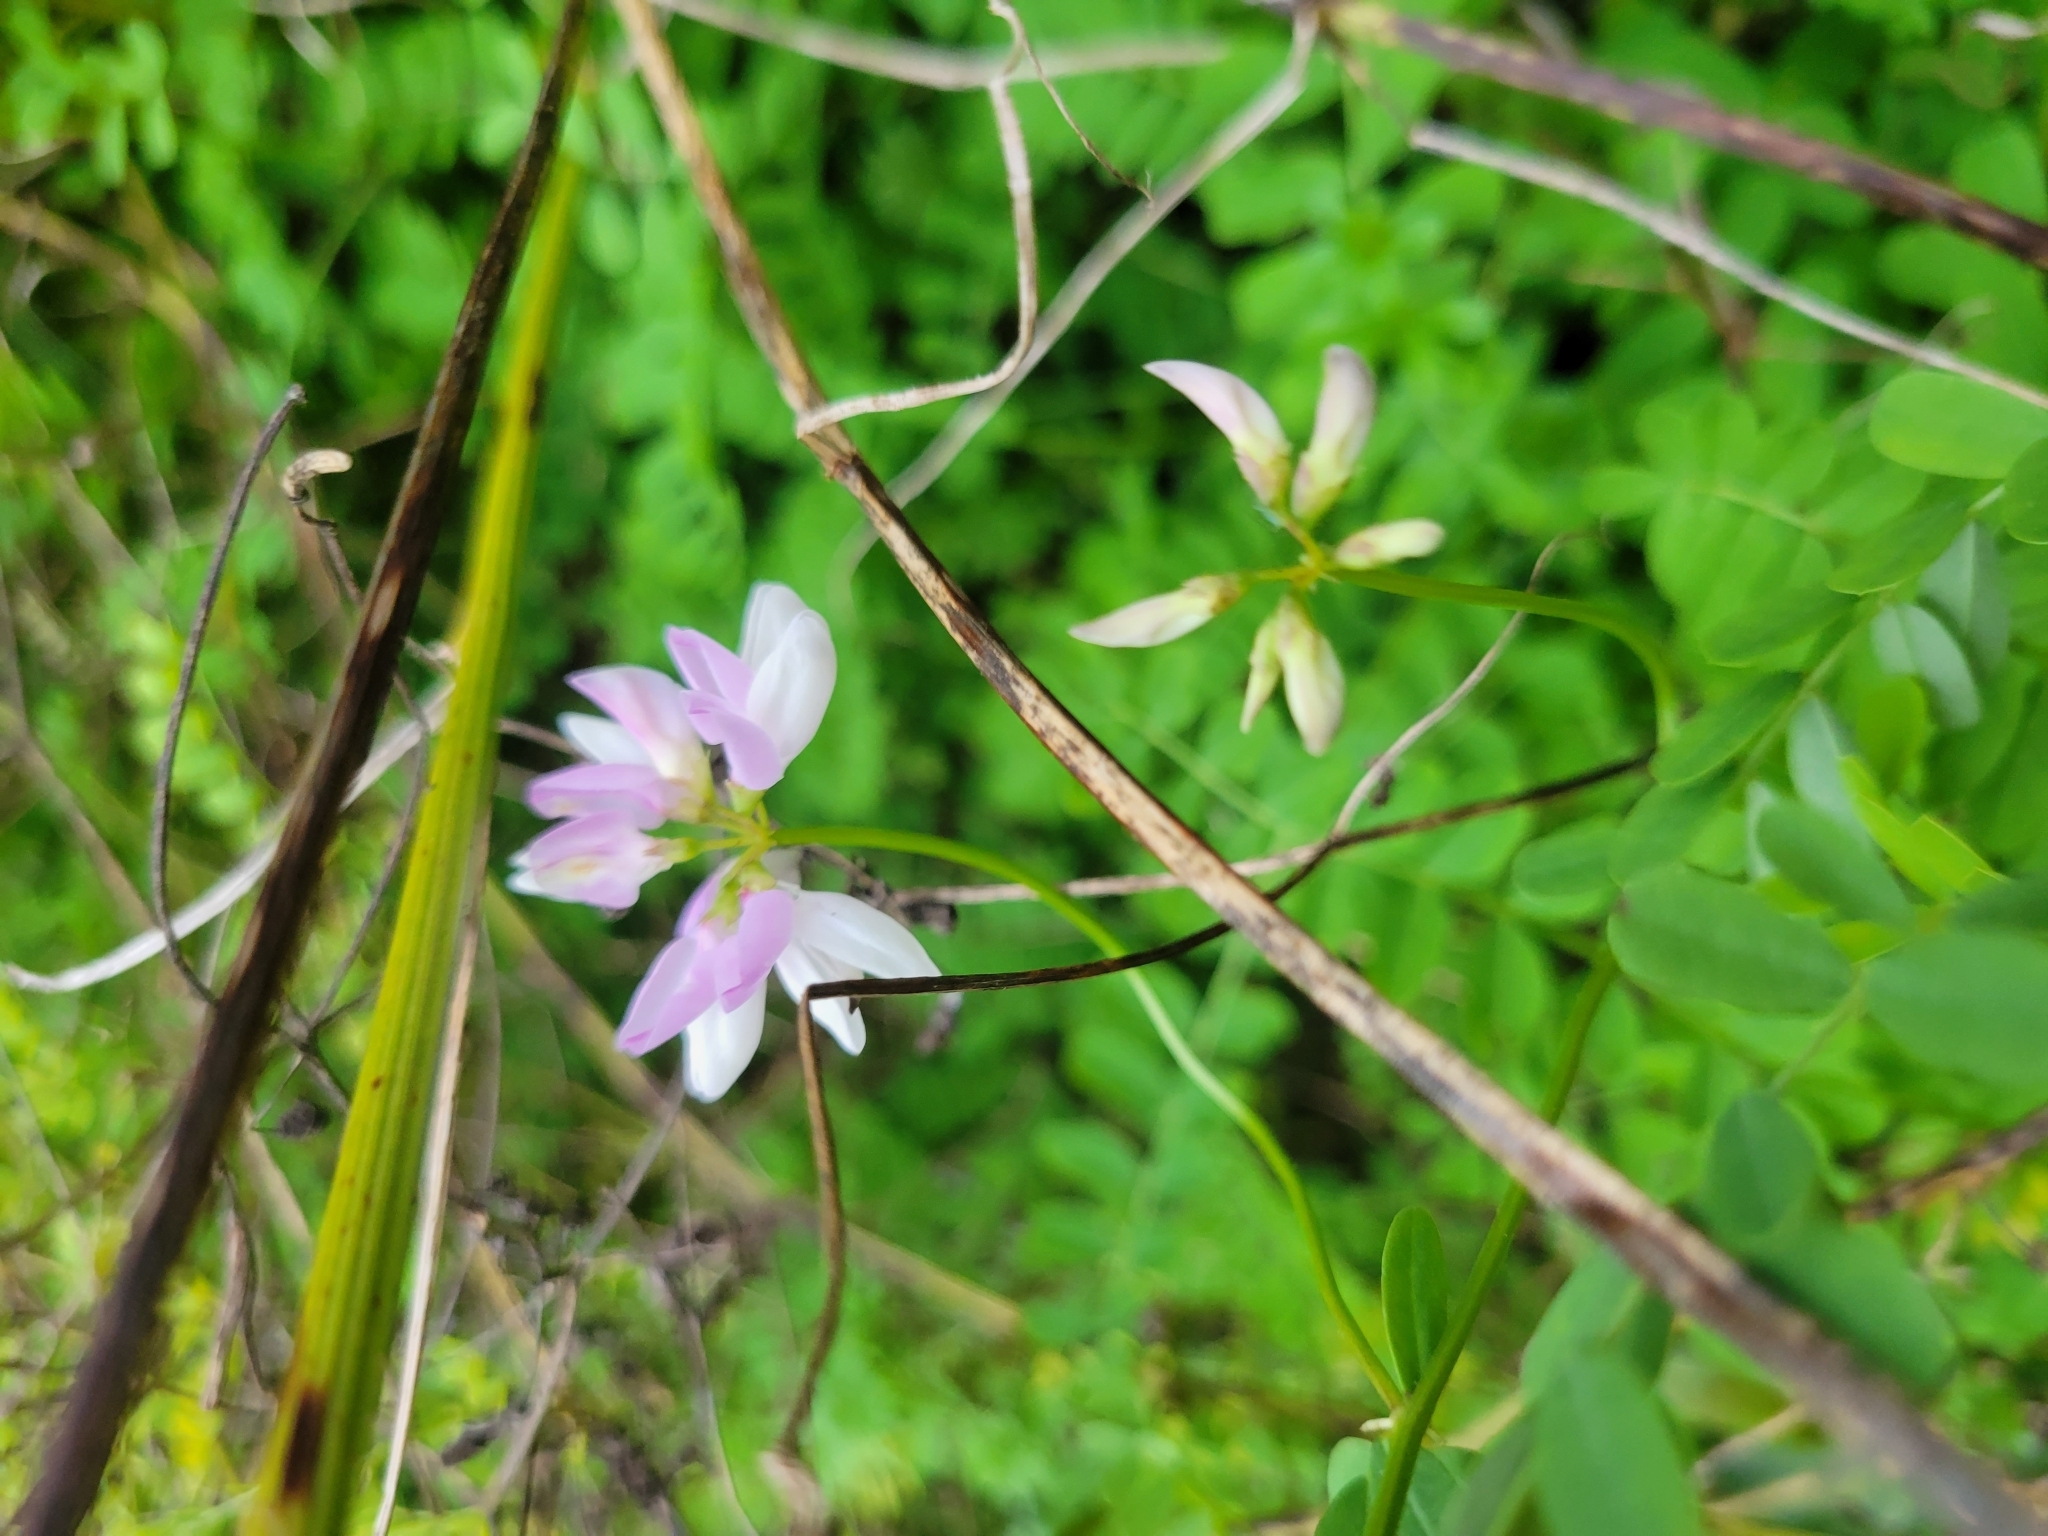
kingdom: Plantae
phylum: Tracheophyta
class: Magnoliopsida
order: Fabales
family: Fabaceae
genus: Coronilla
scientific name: Coronilla varia
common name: Crownvetch
